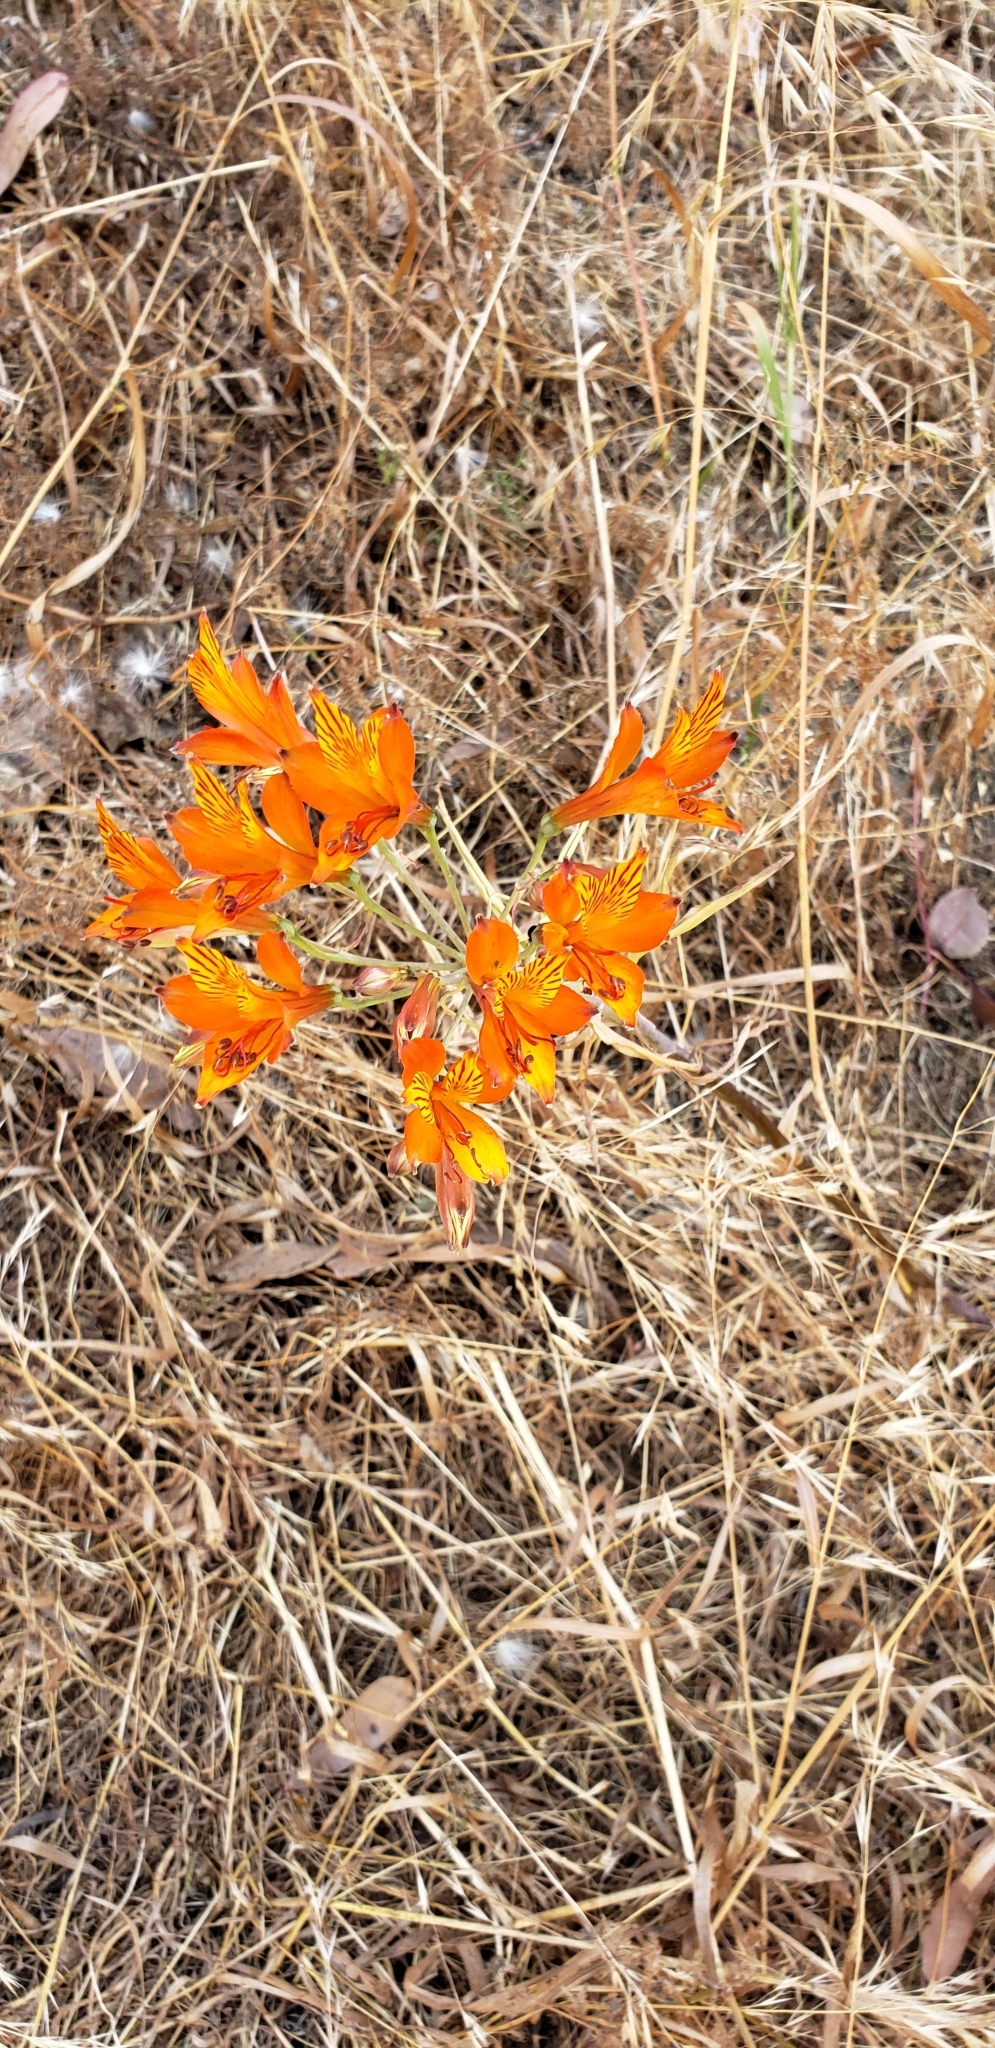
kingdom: Plantae
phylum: Tracheophyta
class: Liliopsida
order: Liliales
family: Alstroemeriaceae
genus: Alstroemeria
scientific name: Alstroemeria ligtu
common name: St. martin's-flower
